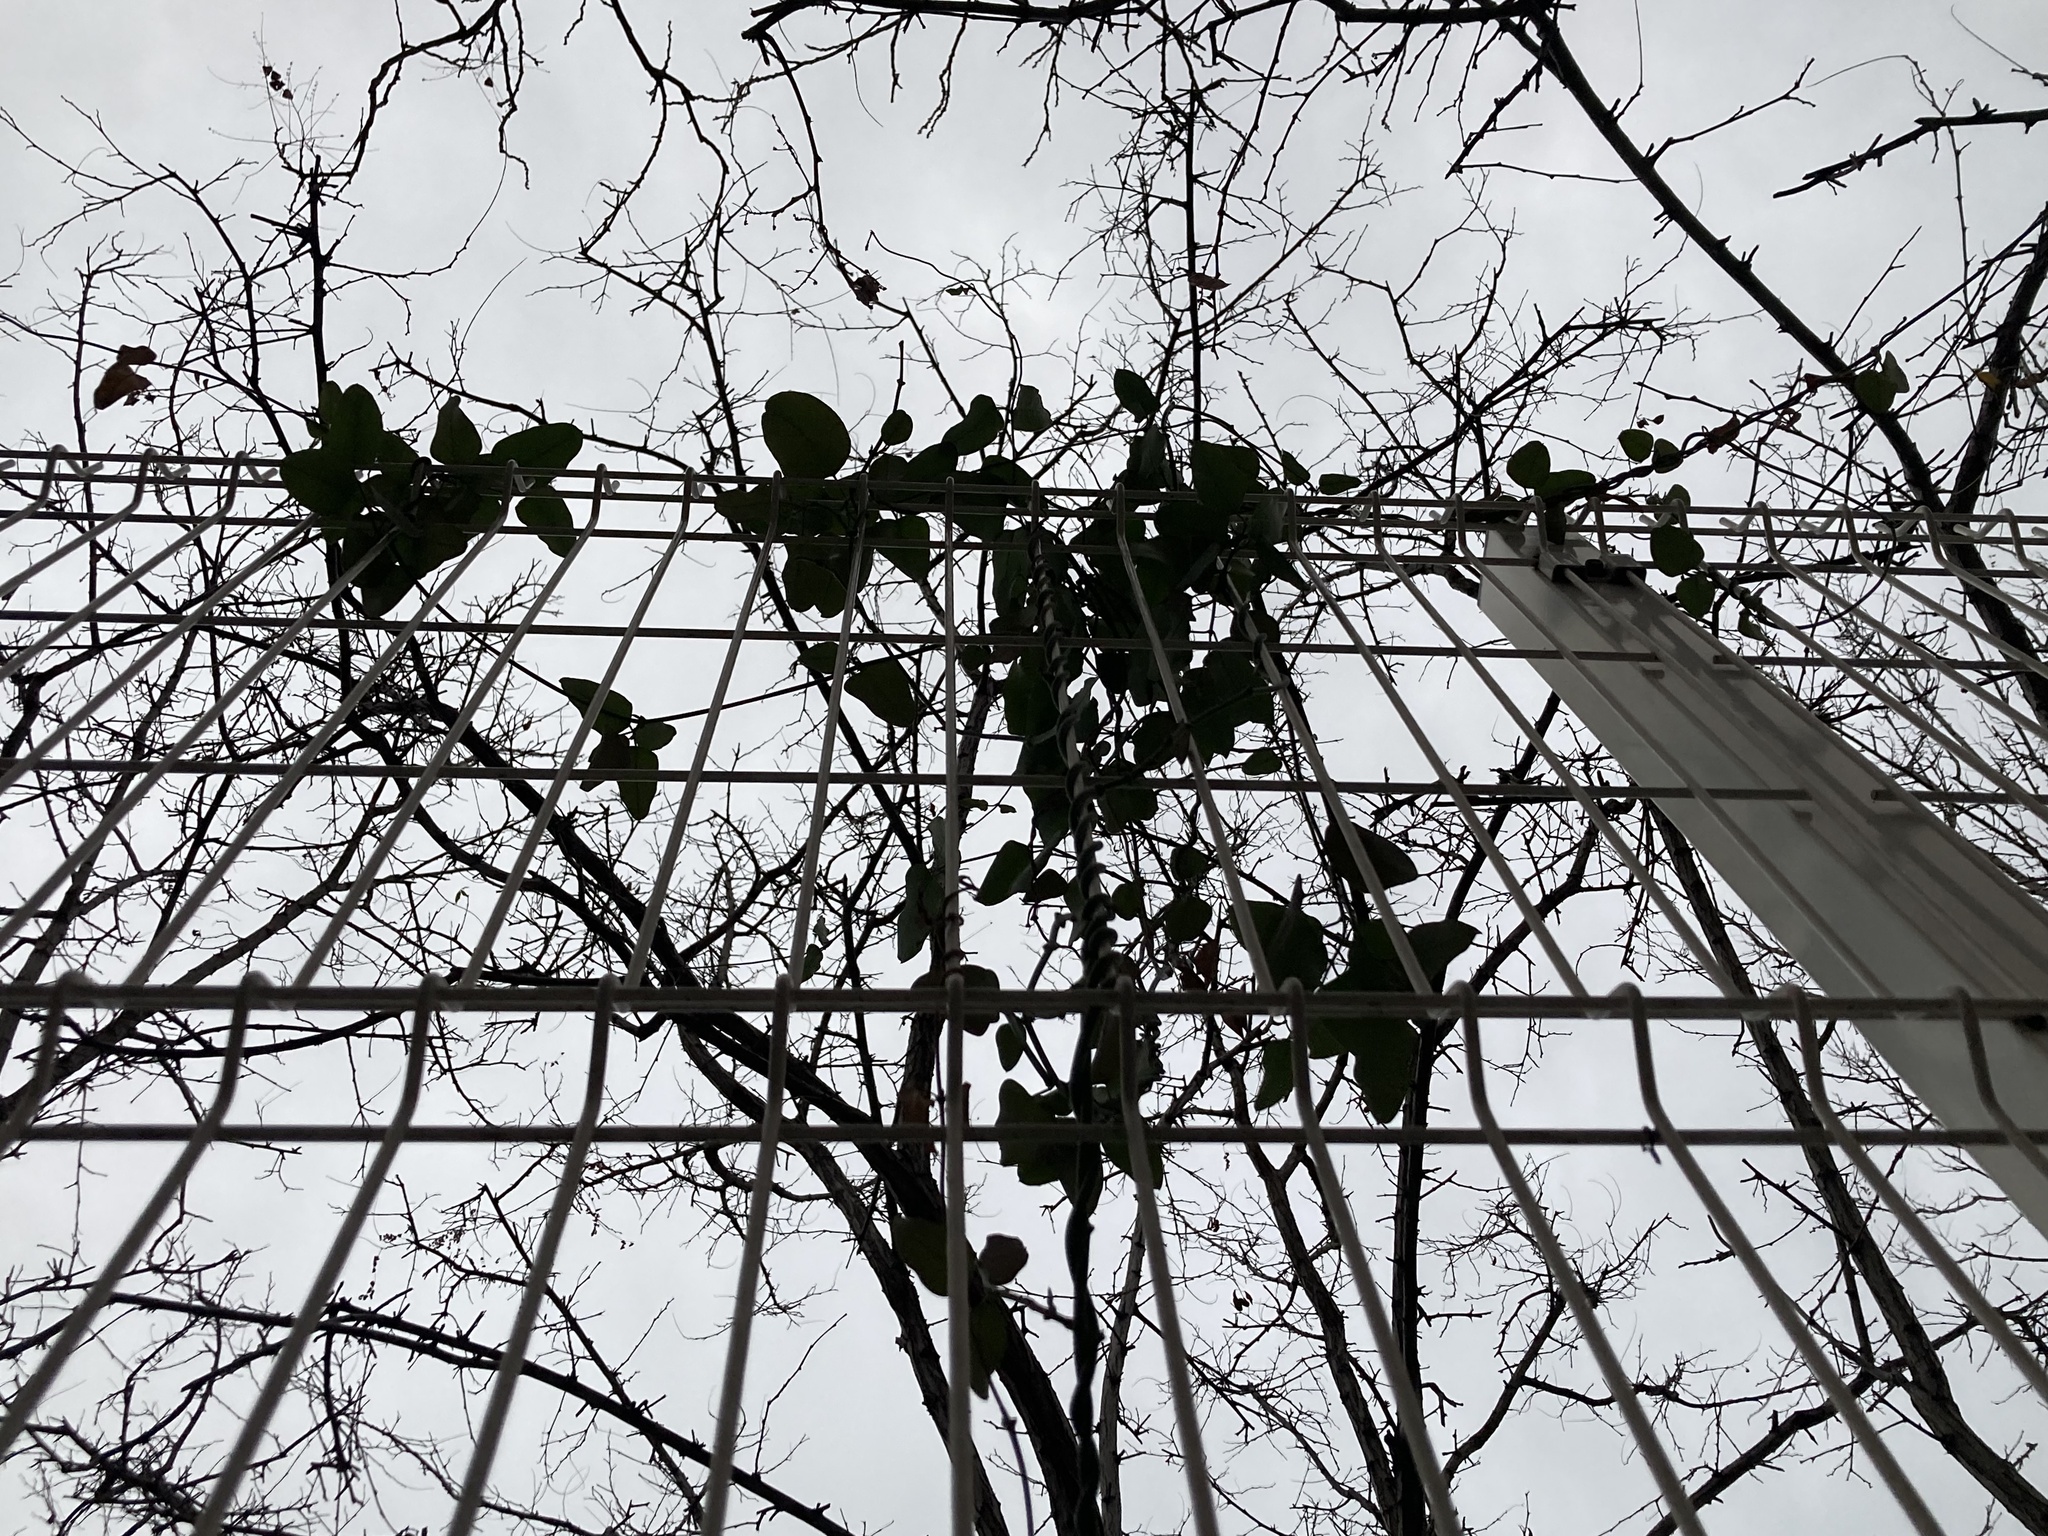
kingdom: Plantae
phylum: Tracheophyta
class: Magnoliopsida
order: Gentianales
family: Apocynaceae
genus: Araujia
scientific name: Araujia sericifera
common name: White bladderflower
